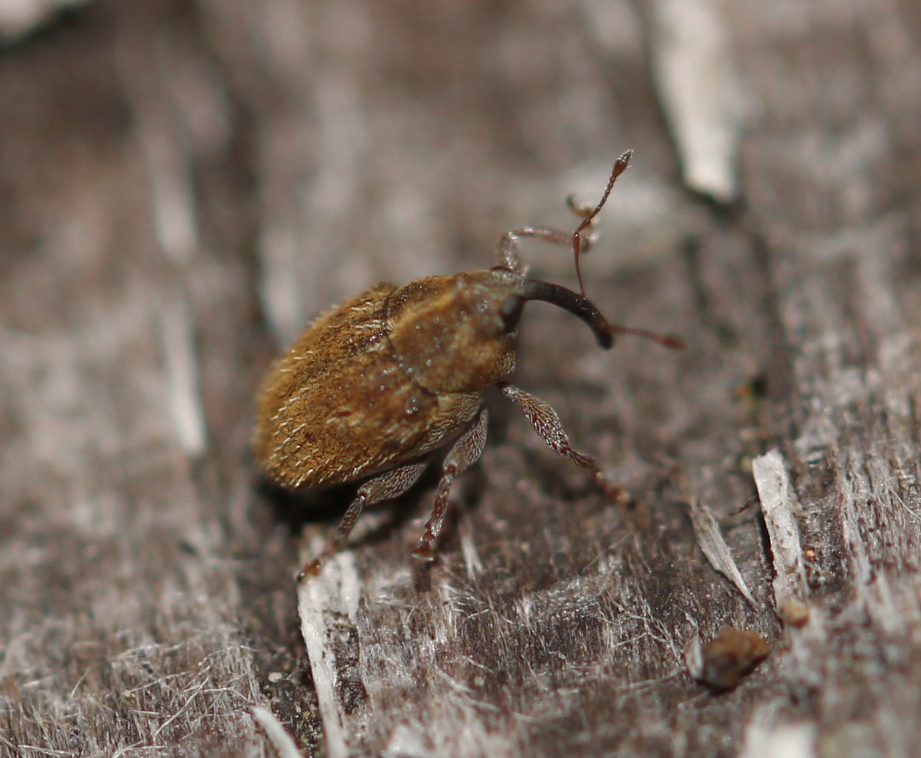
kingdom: Animalia
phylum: Arthropoda
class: Insecta
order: Coleoptera
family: Curculionidae
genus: Trichosirocalus
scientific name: Trichosirocalus troglodytes
